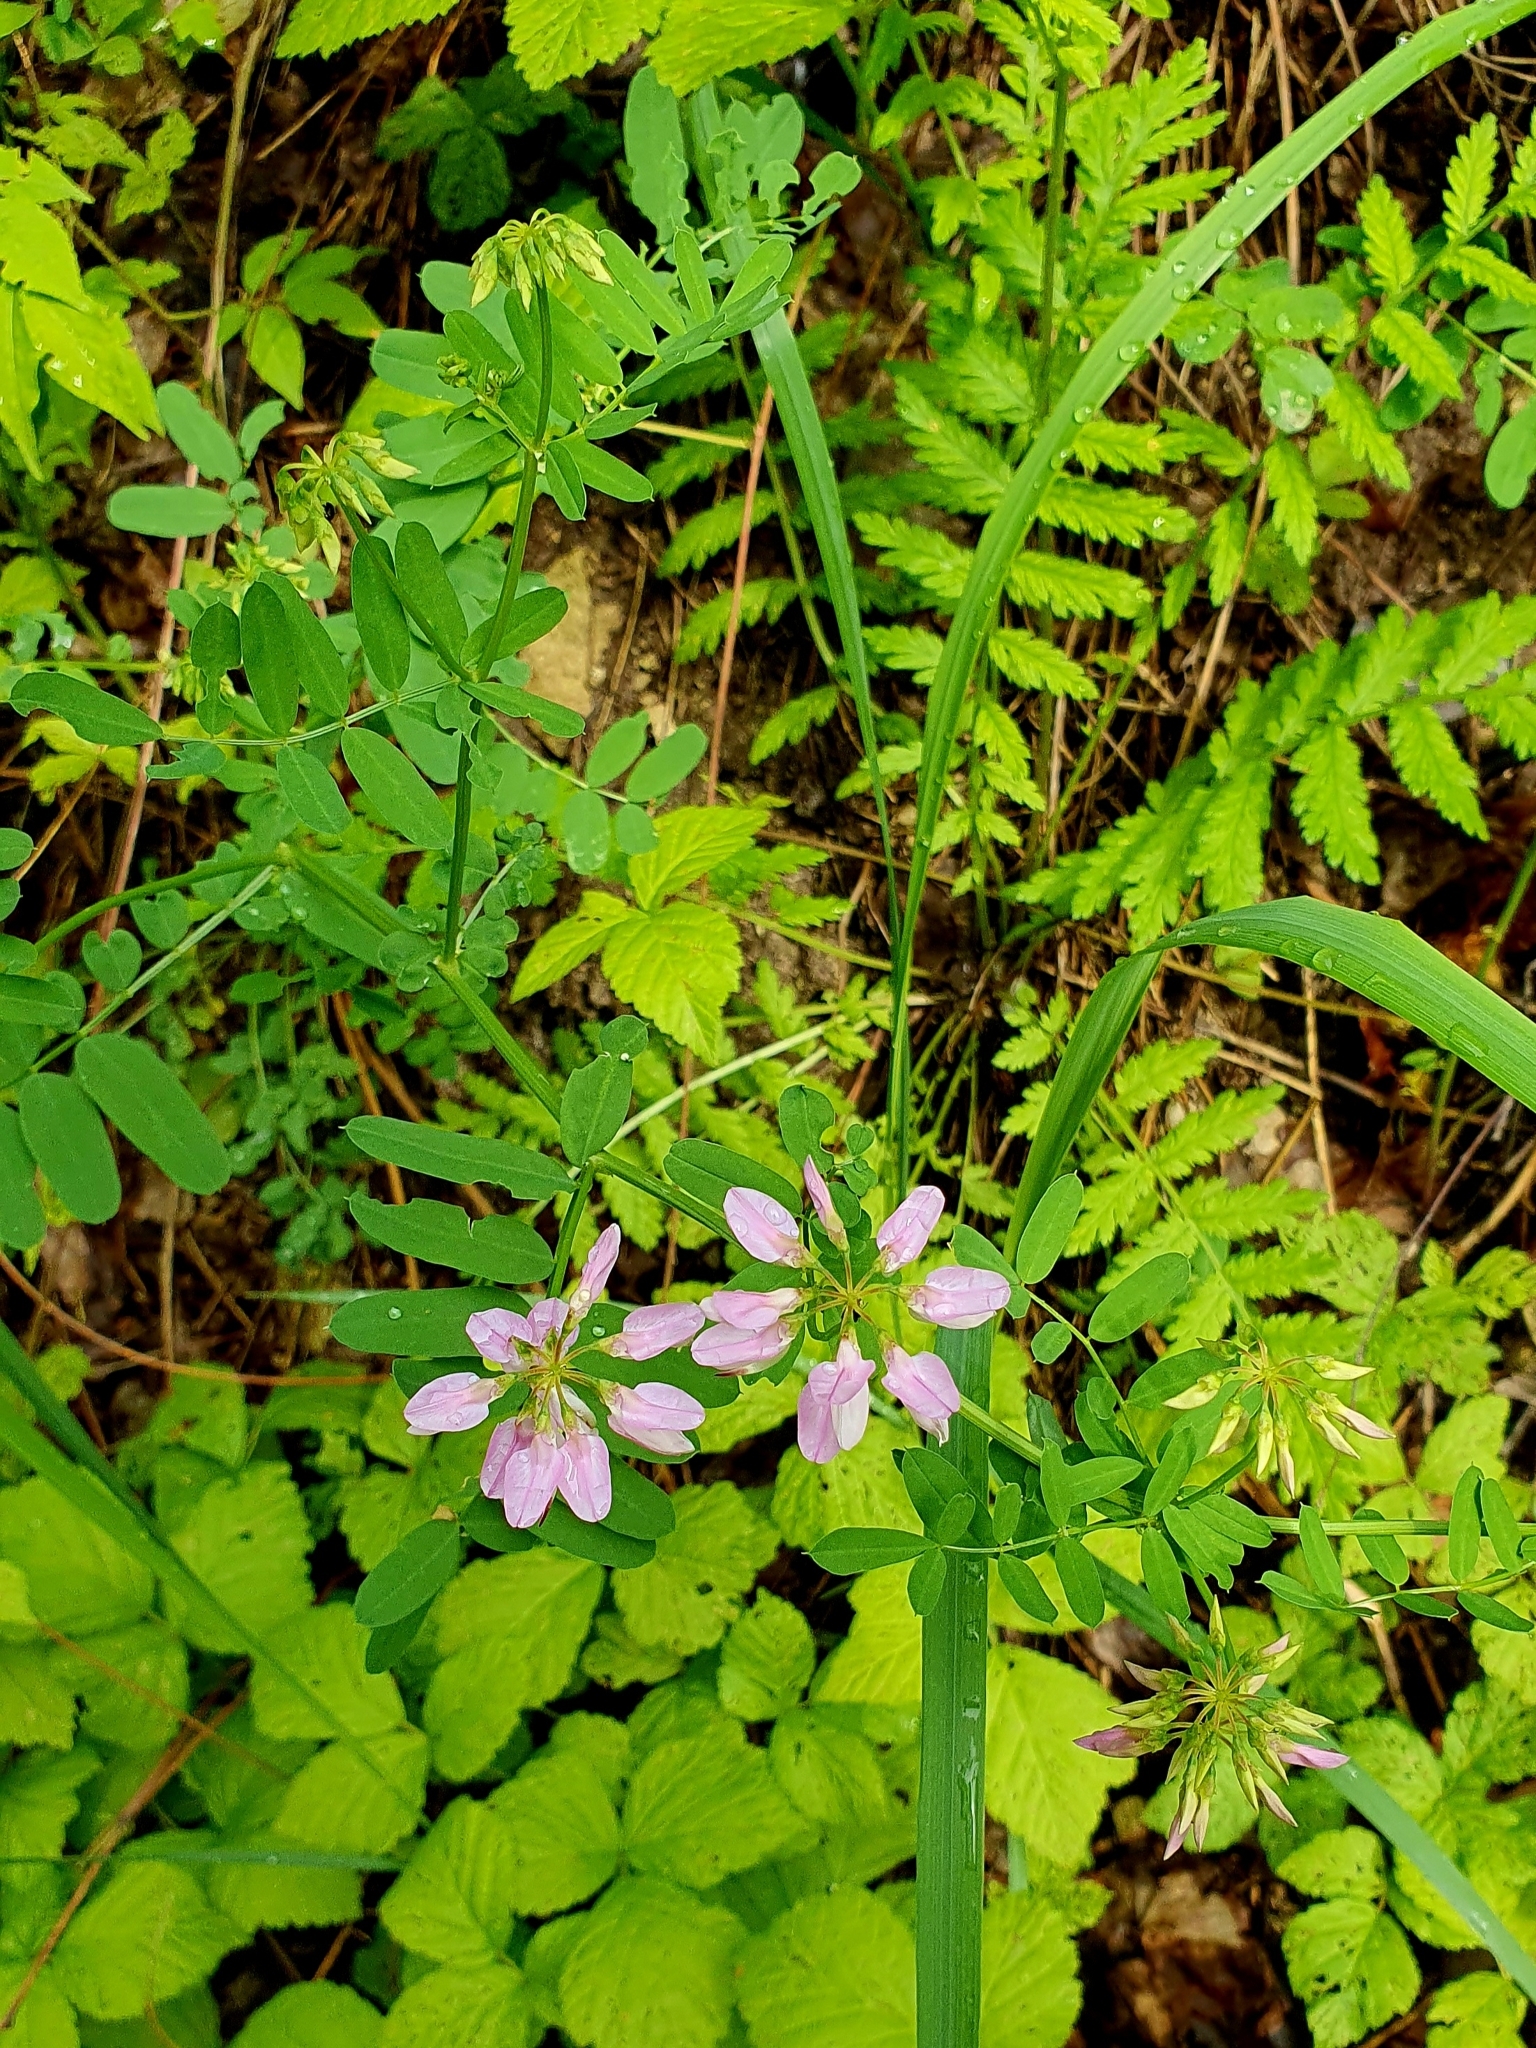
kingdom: Plantae
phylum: Tracheophyta
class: Magnoliopsida
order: Fabales
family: Fabaceae
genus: Coronilla
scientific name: Coronilla varia
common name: Crownvetch
